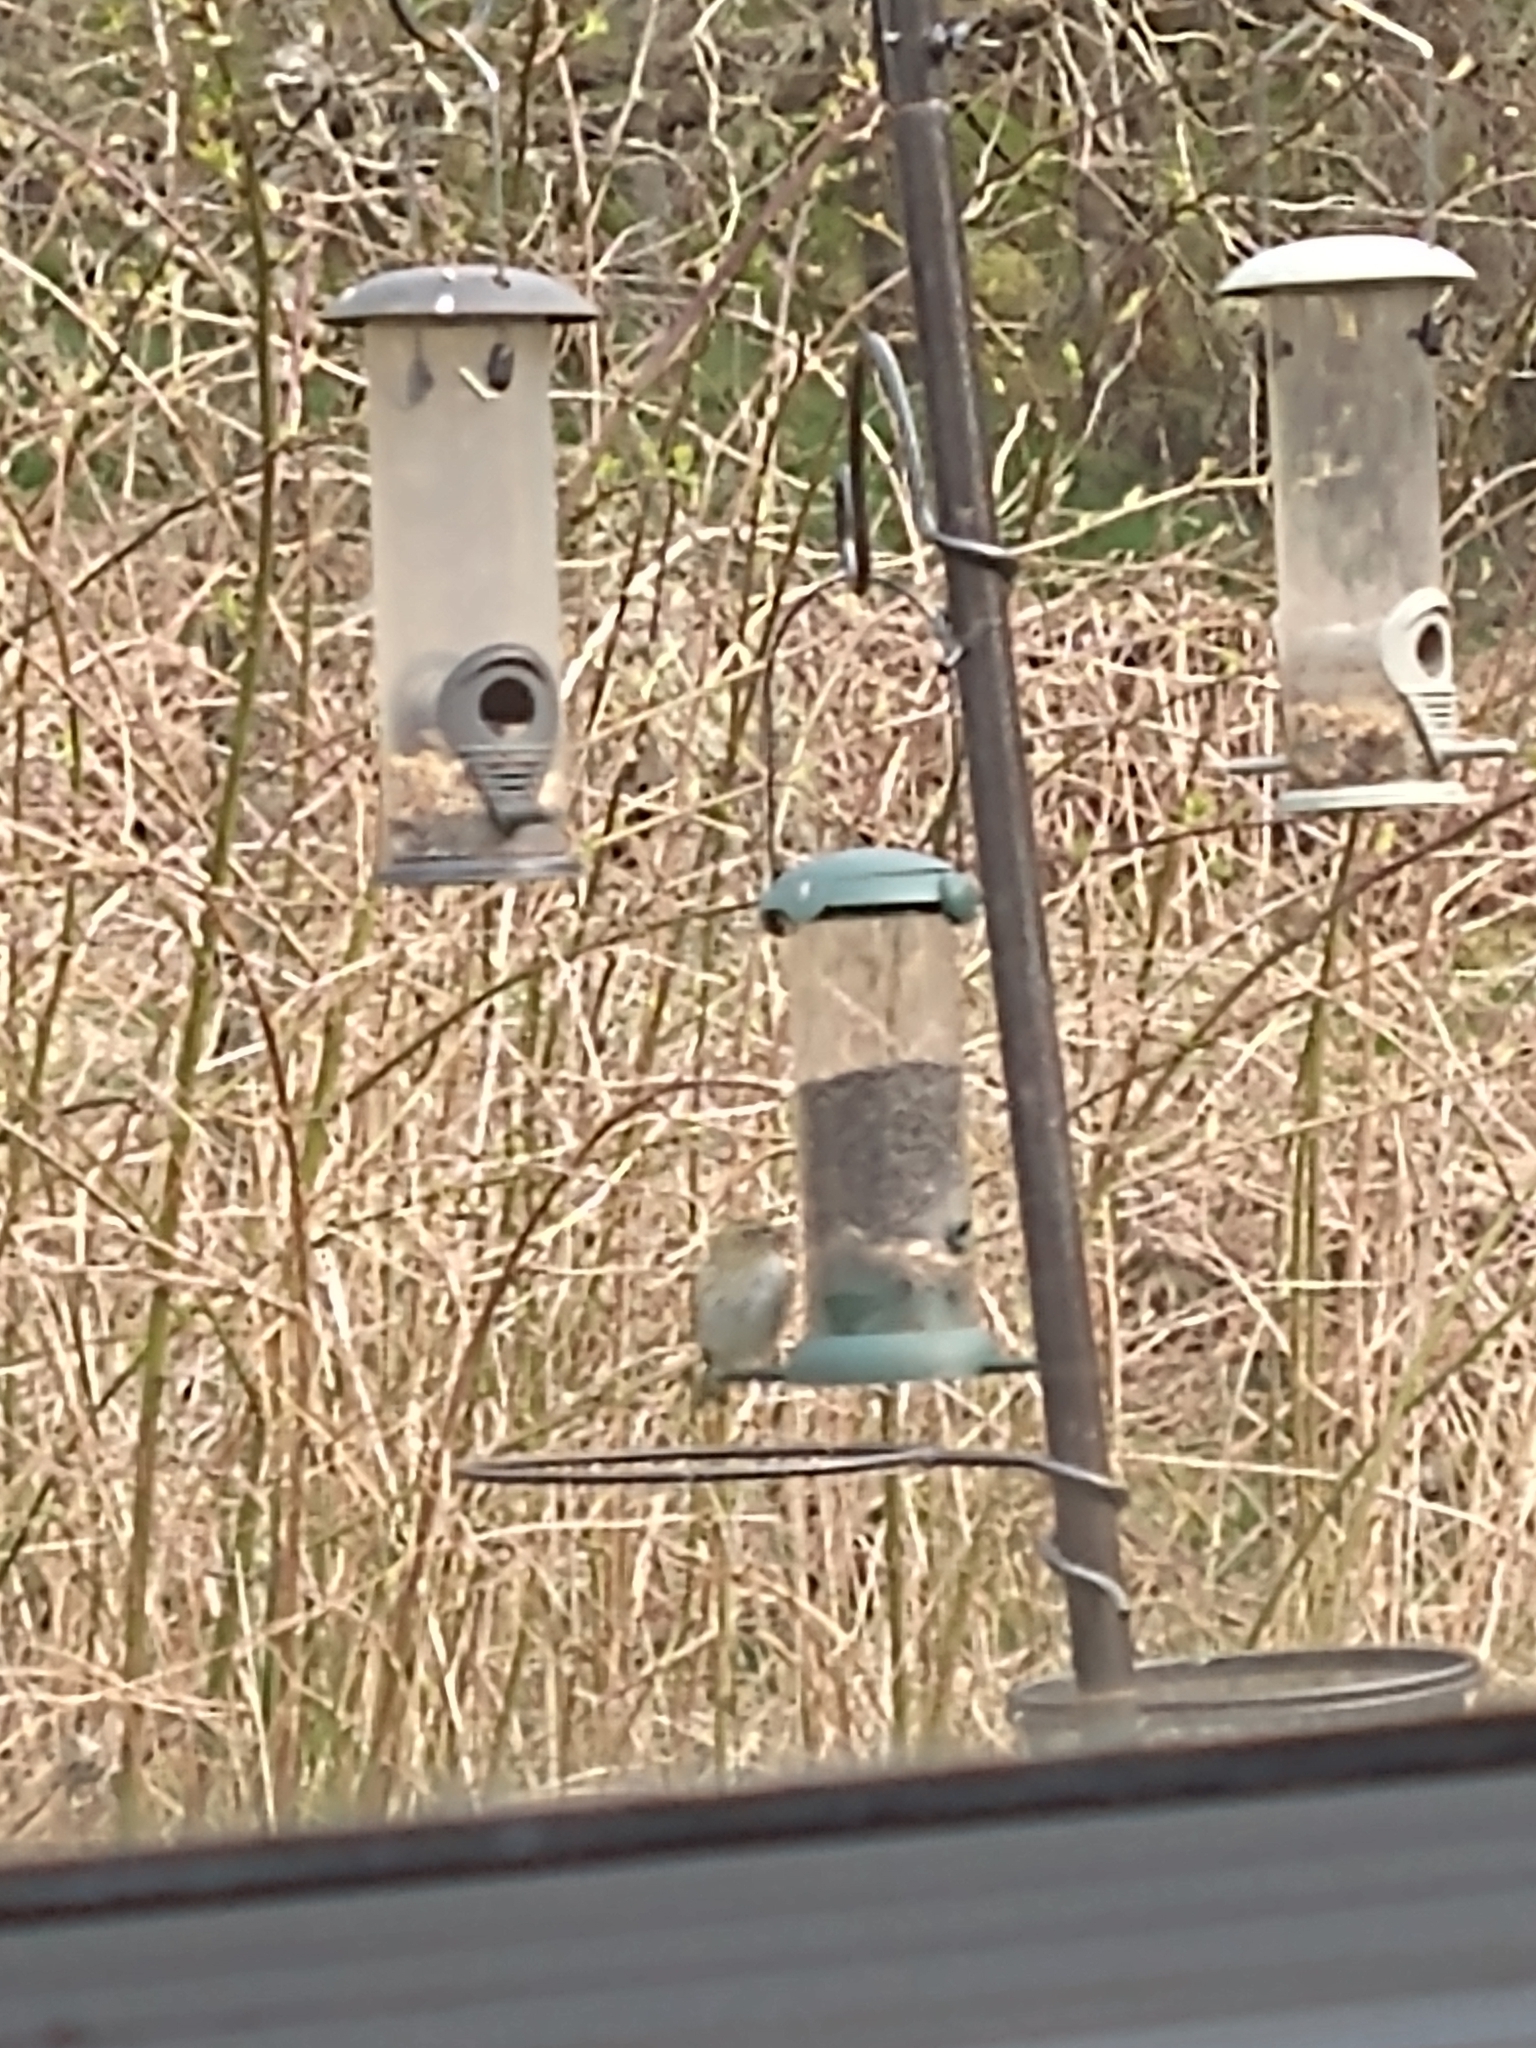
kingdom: Animalia
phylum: Chordata
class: Aves
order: Passeriformes
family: Fringillidae
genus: Spinus
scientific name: Spinus spinus
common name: Eurasian siskin
